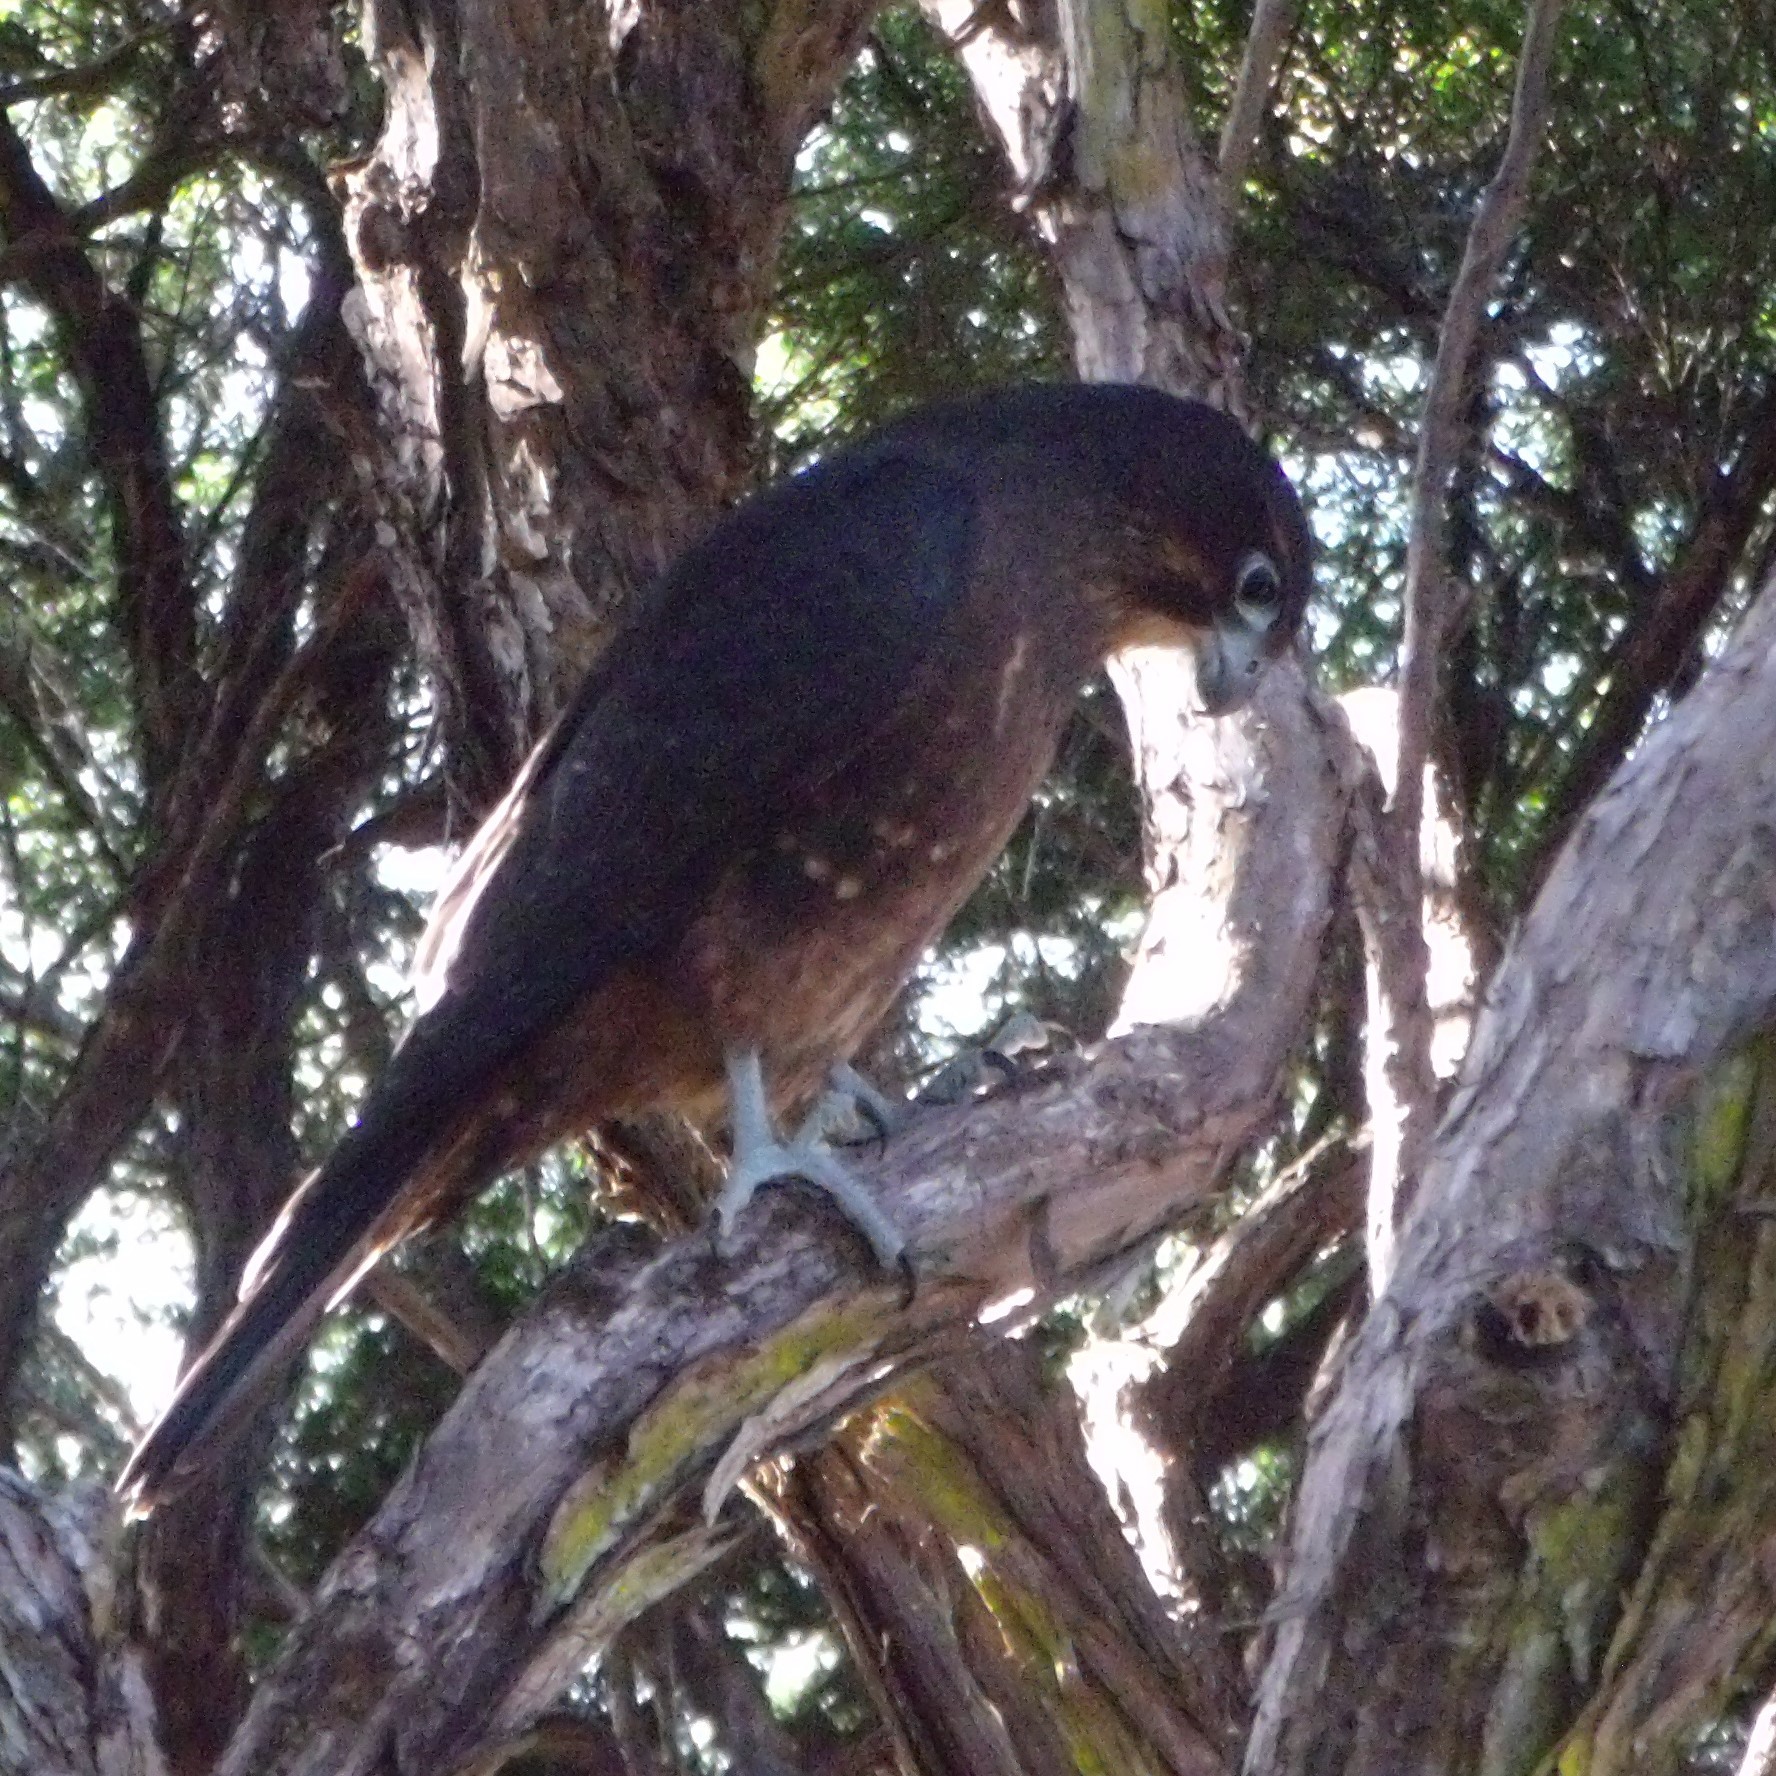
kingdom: Animalia
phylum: Chordata
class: Aves
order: Falconiformes
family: Falconidae
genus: Falco
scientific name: Falco novaeseelandiae
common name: New zealand falcon
